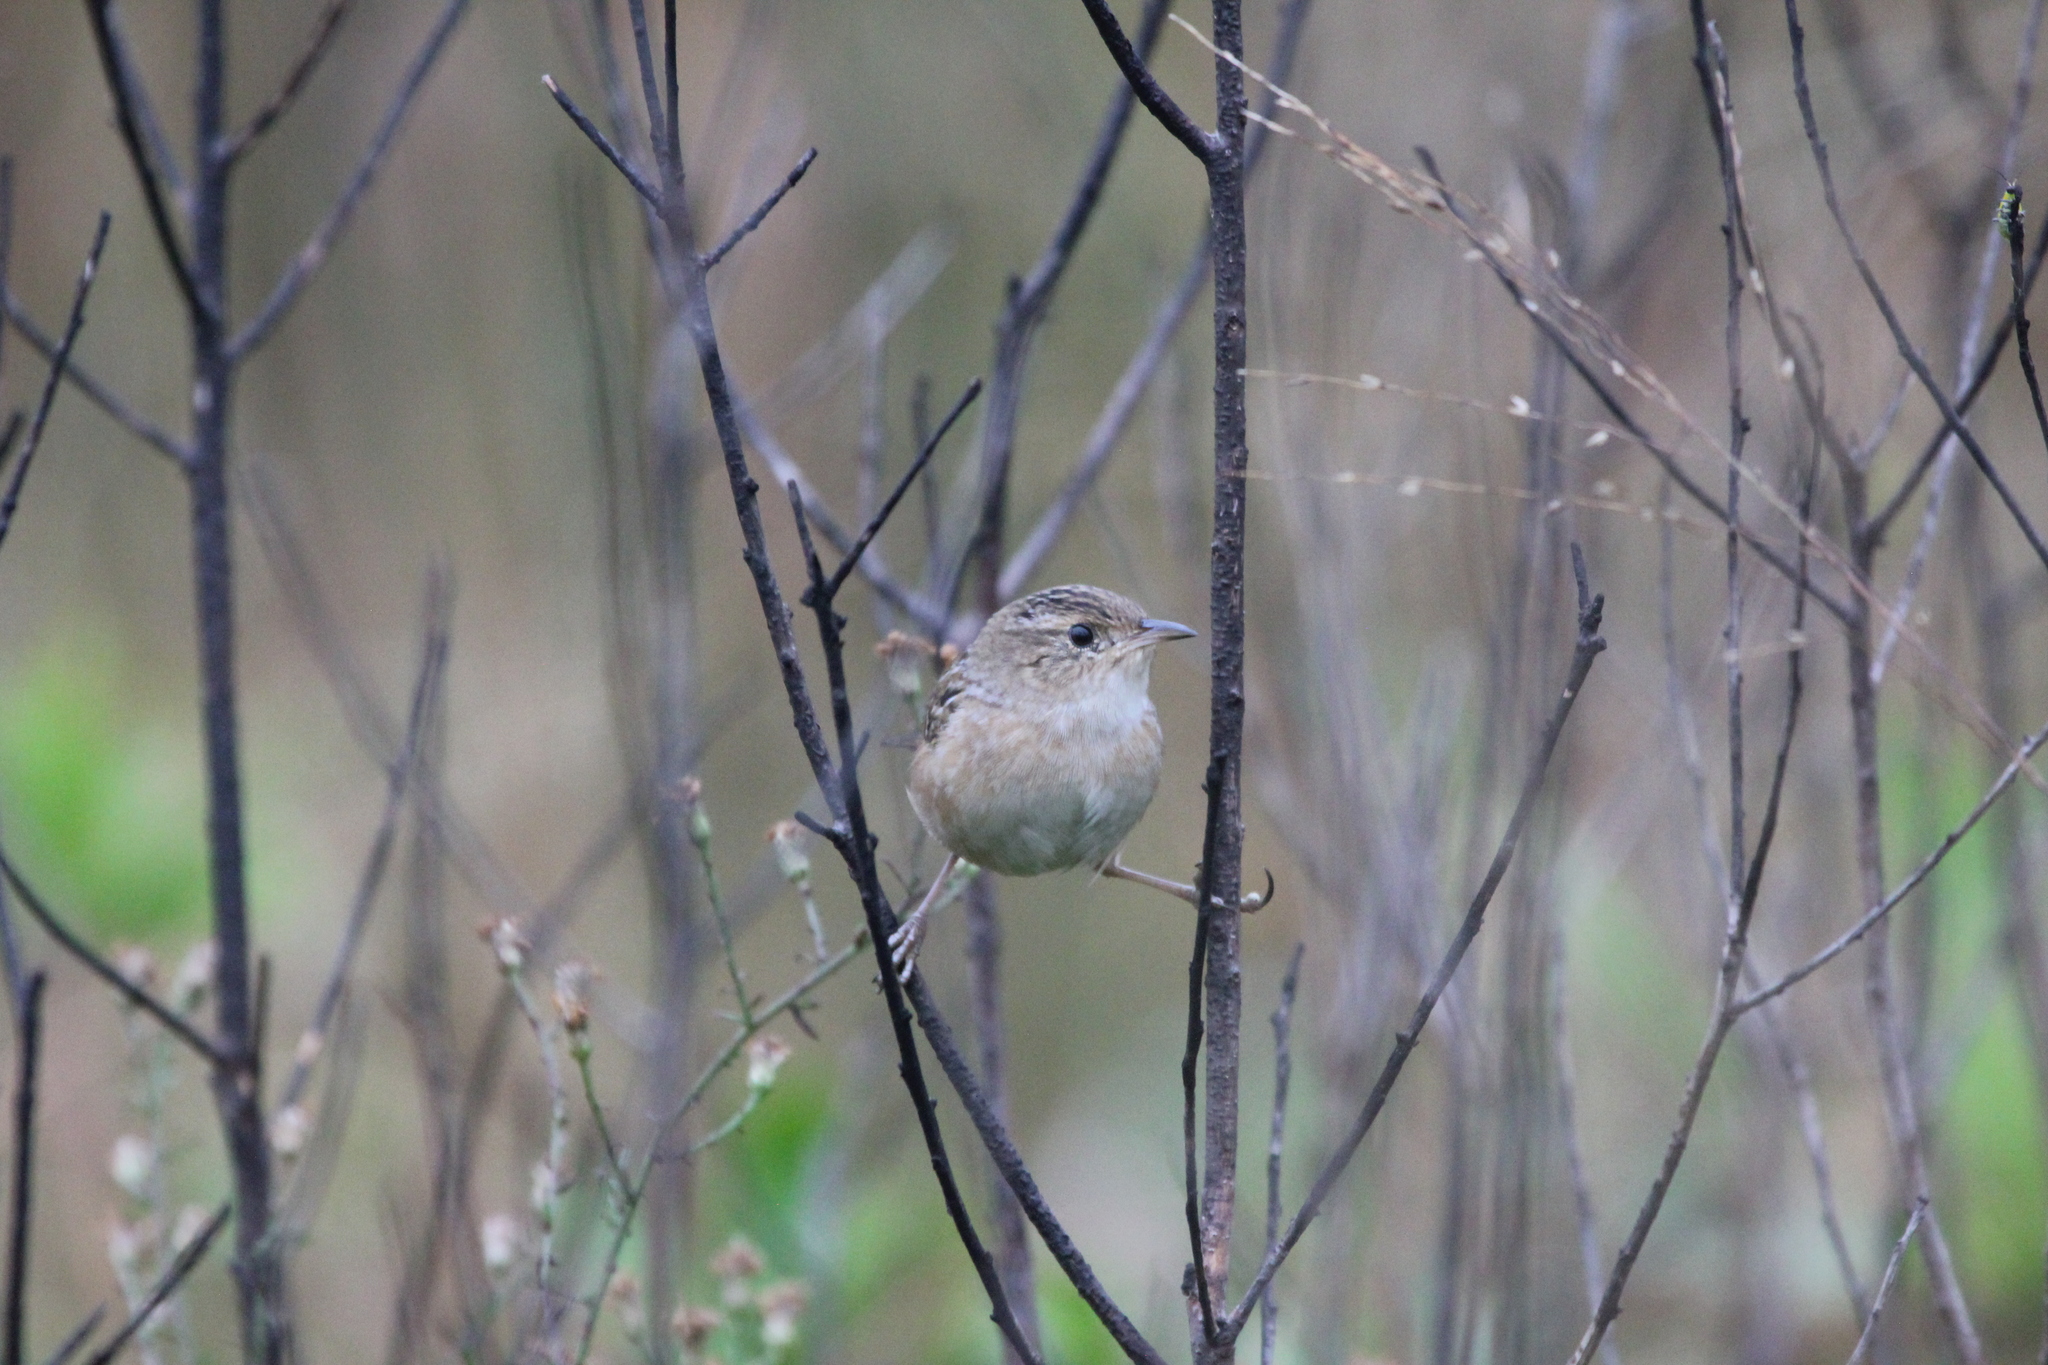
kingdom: Animalia
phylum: Chordata
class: Aves
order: Passeriformes
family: Troglodytidae
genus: Cistothorus
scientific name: Cistothorus platensis
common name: Sedge wren
